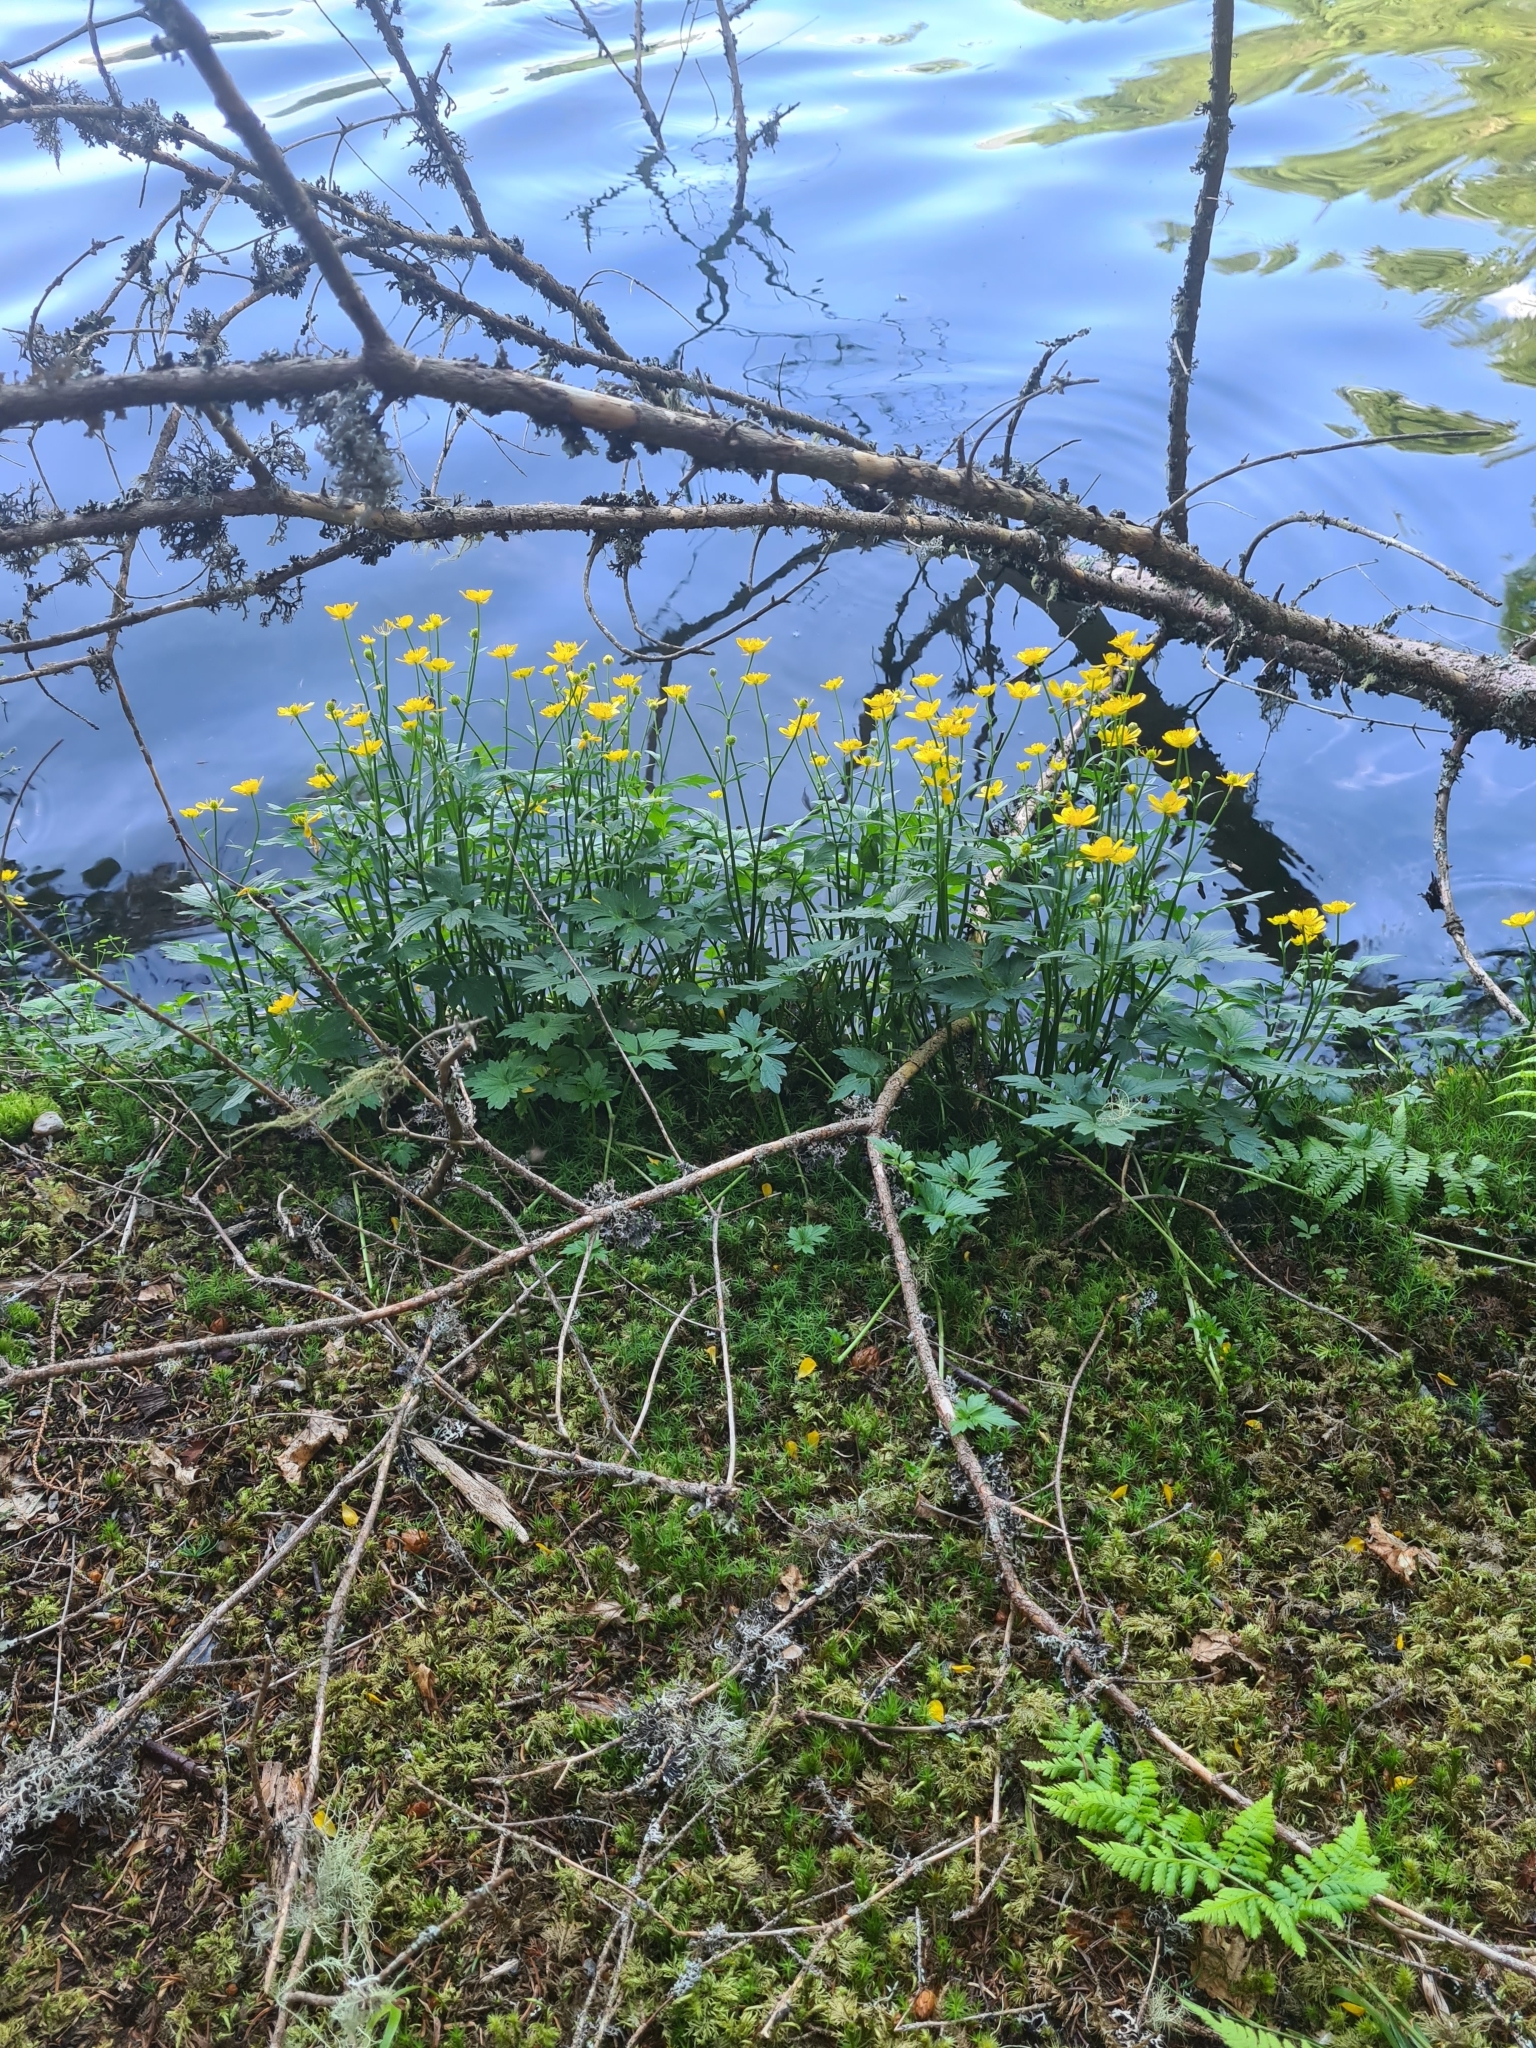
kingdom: Plantae
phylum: Tracheophyta
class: Magnoliopsida
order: Ranunculales
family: Ranunculaceae
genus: Ranunculus
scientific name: Ranunculus repens
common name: Creeping buttercup
